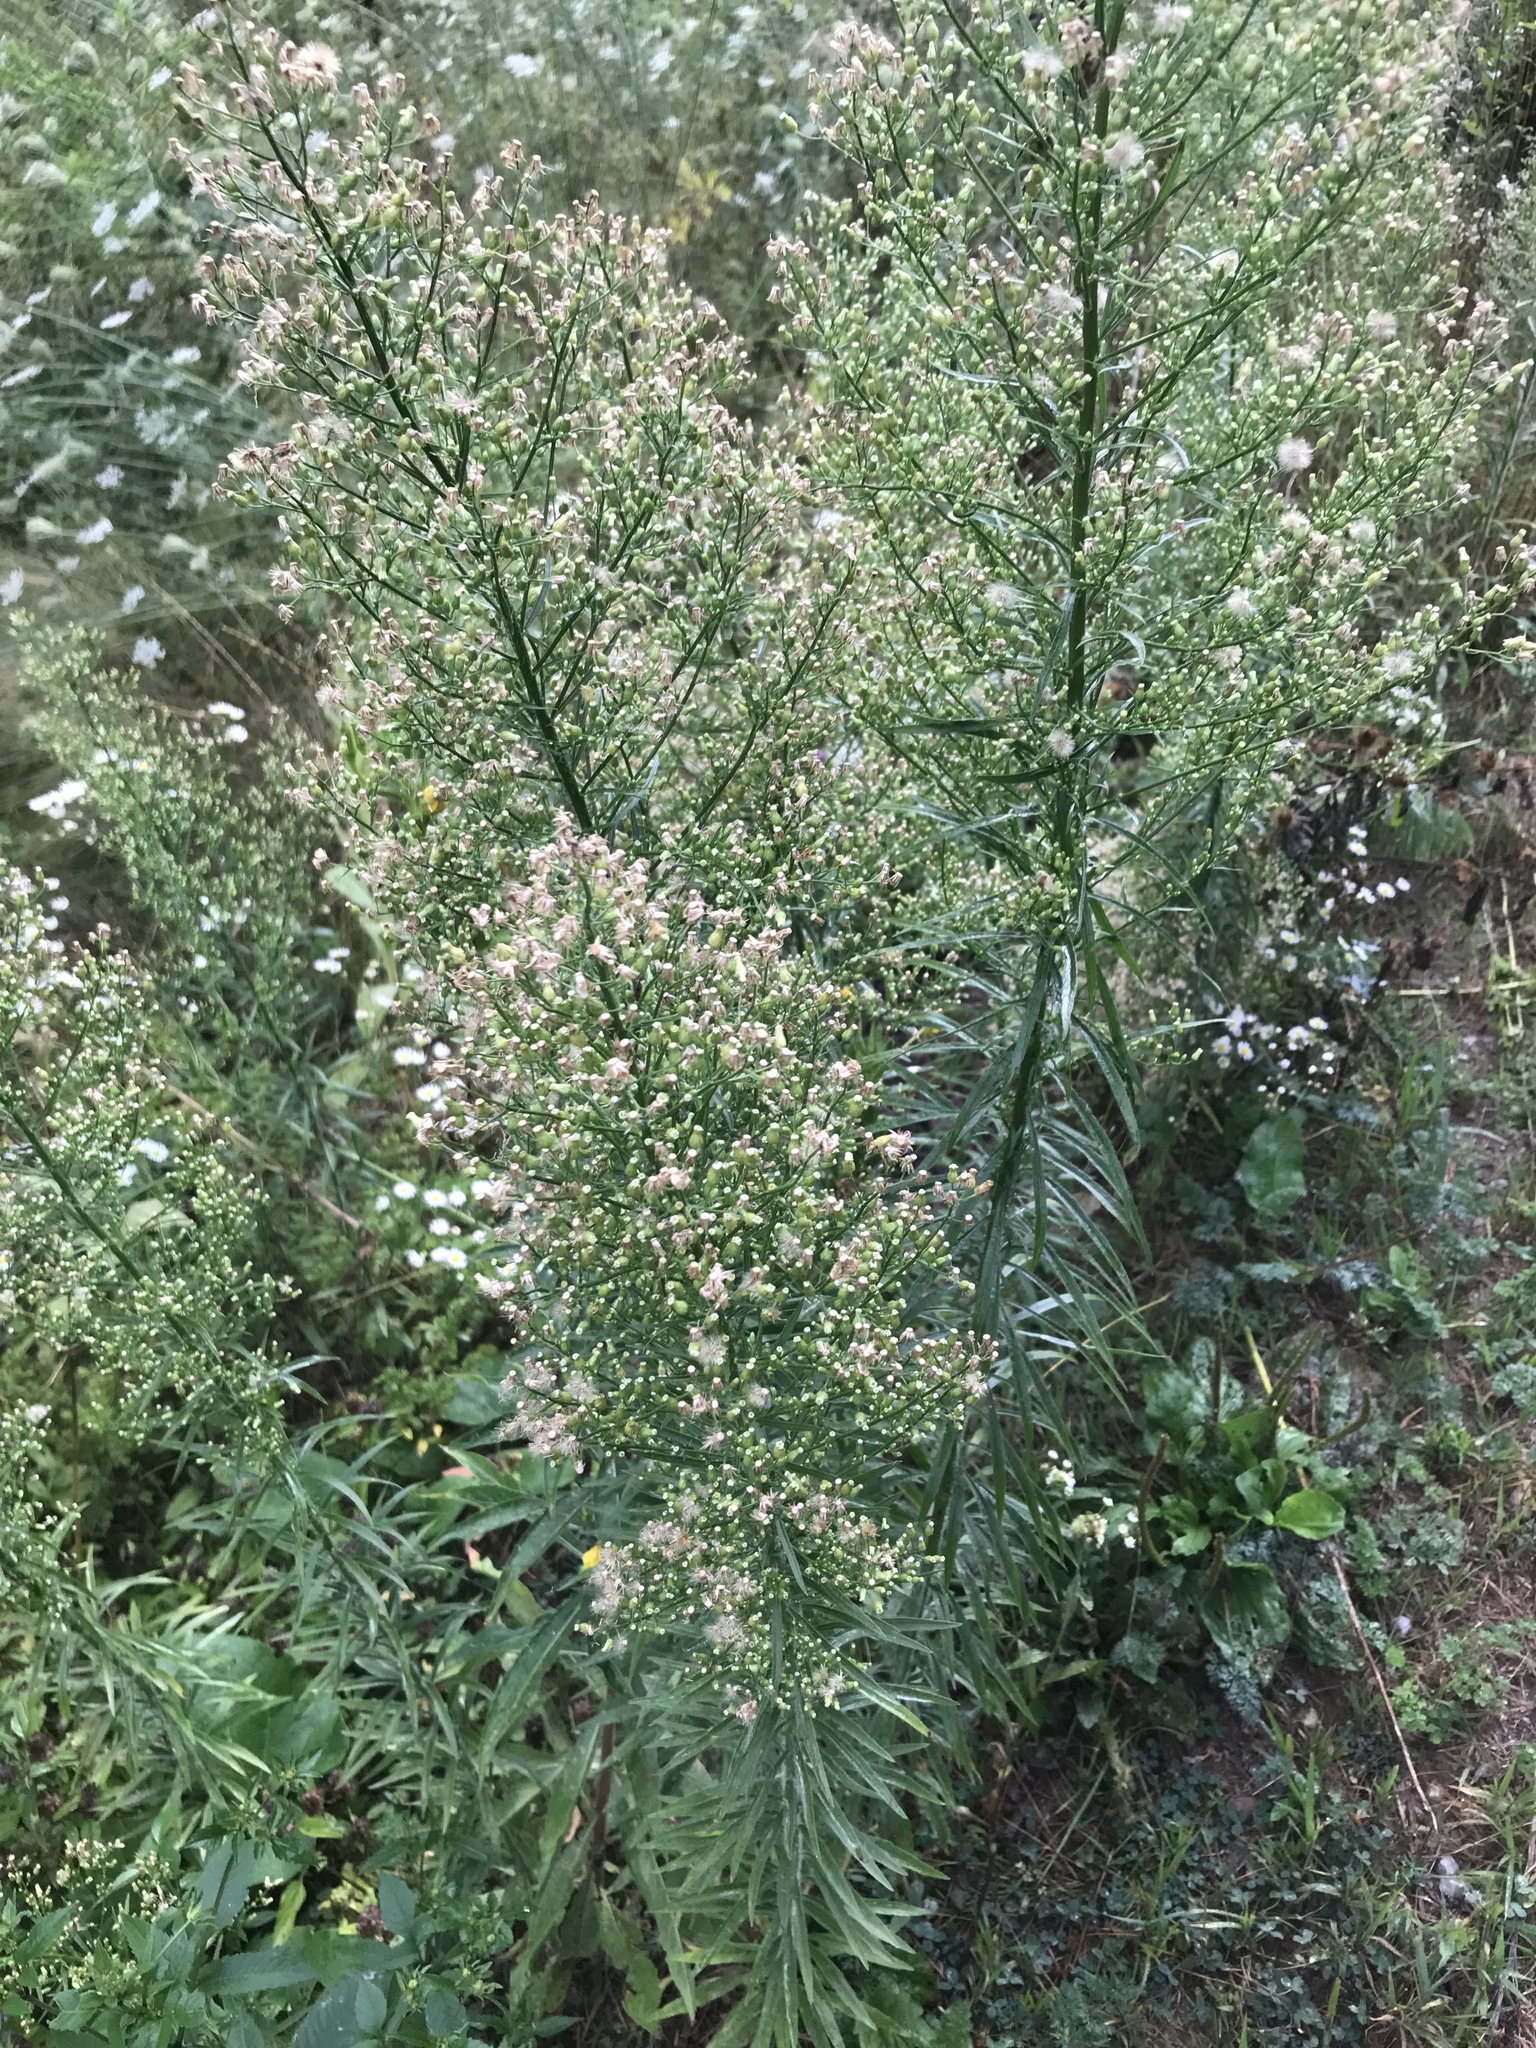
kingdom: Plantae
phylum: Tracheophyta
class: Magnoliopsida
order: Asterales
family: Asteraceae
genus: Erigeron
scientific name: Erigeron canadensis
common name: Canadian fleabane
